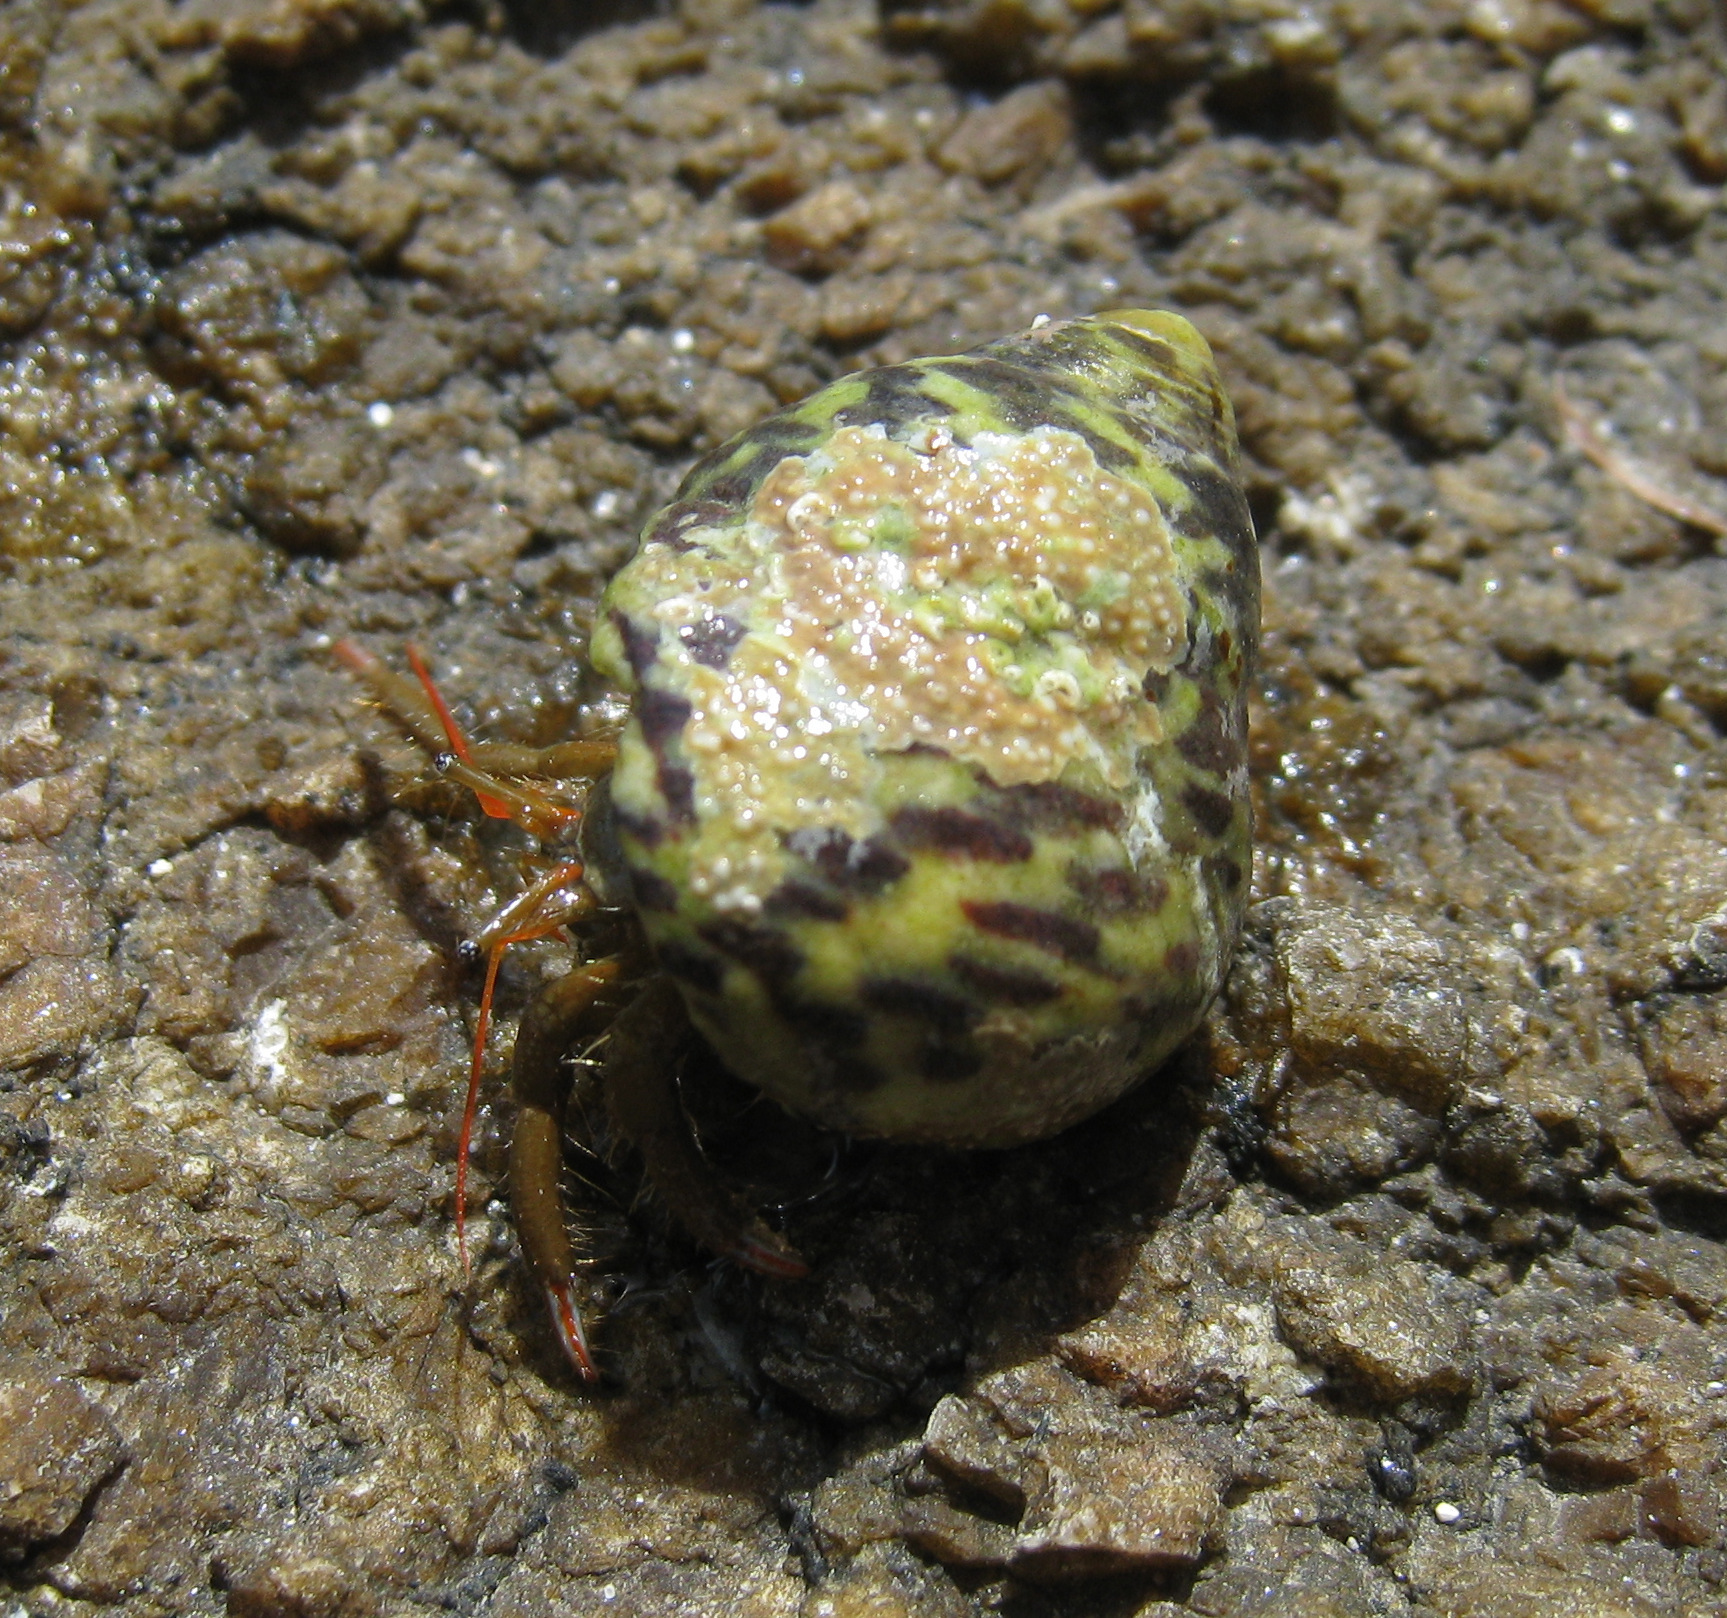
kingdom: Animalia
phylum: Mollusca
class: Gastropoda
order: Trochida
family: Trochidae
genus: Phorcus
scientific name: Phorcus turbinatus
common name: Turbinate monodont
